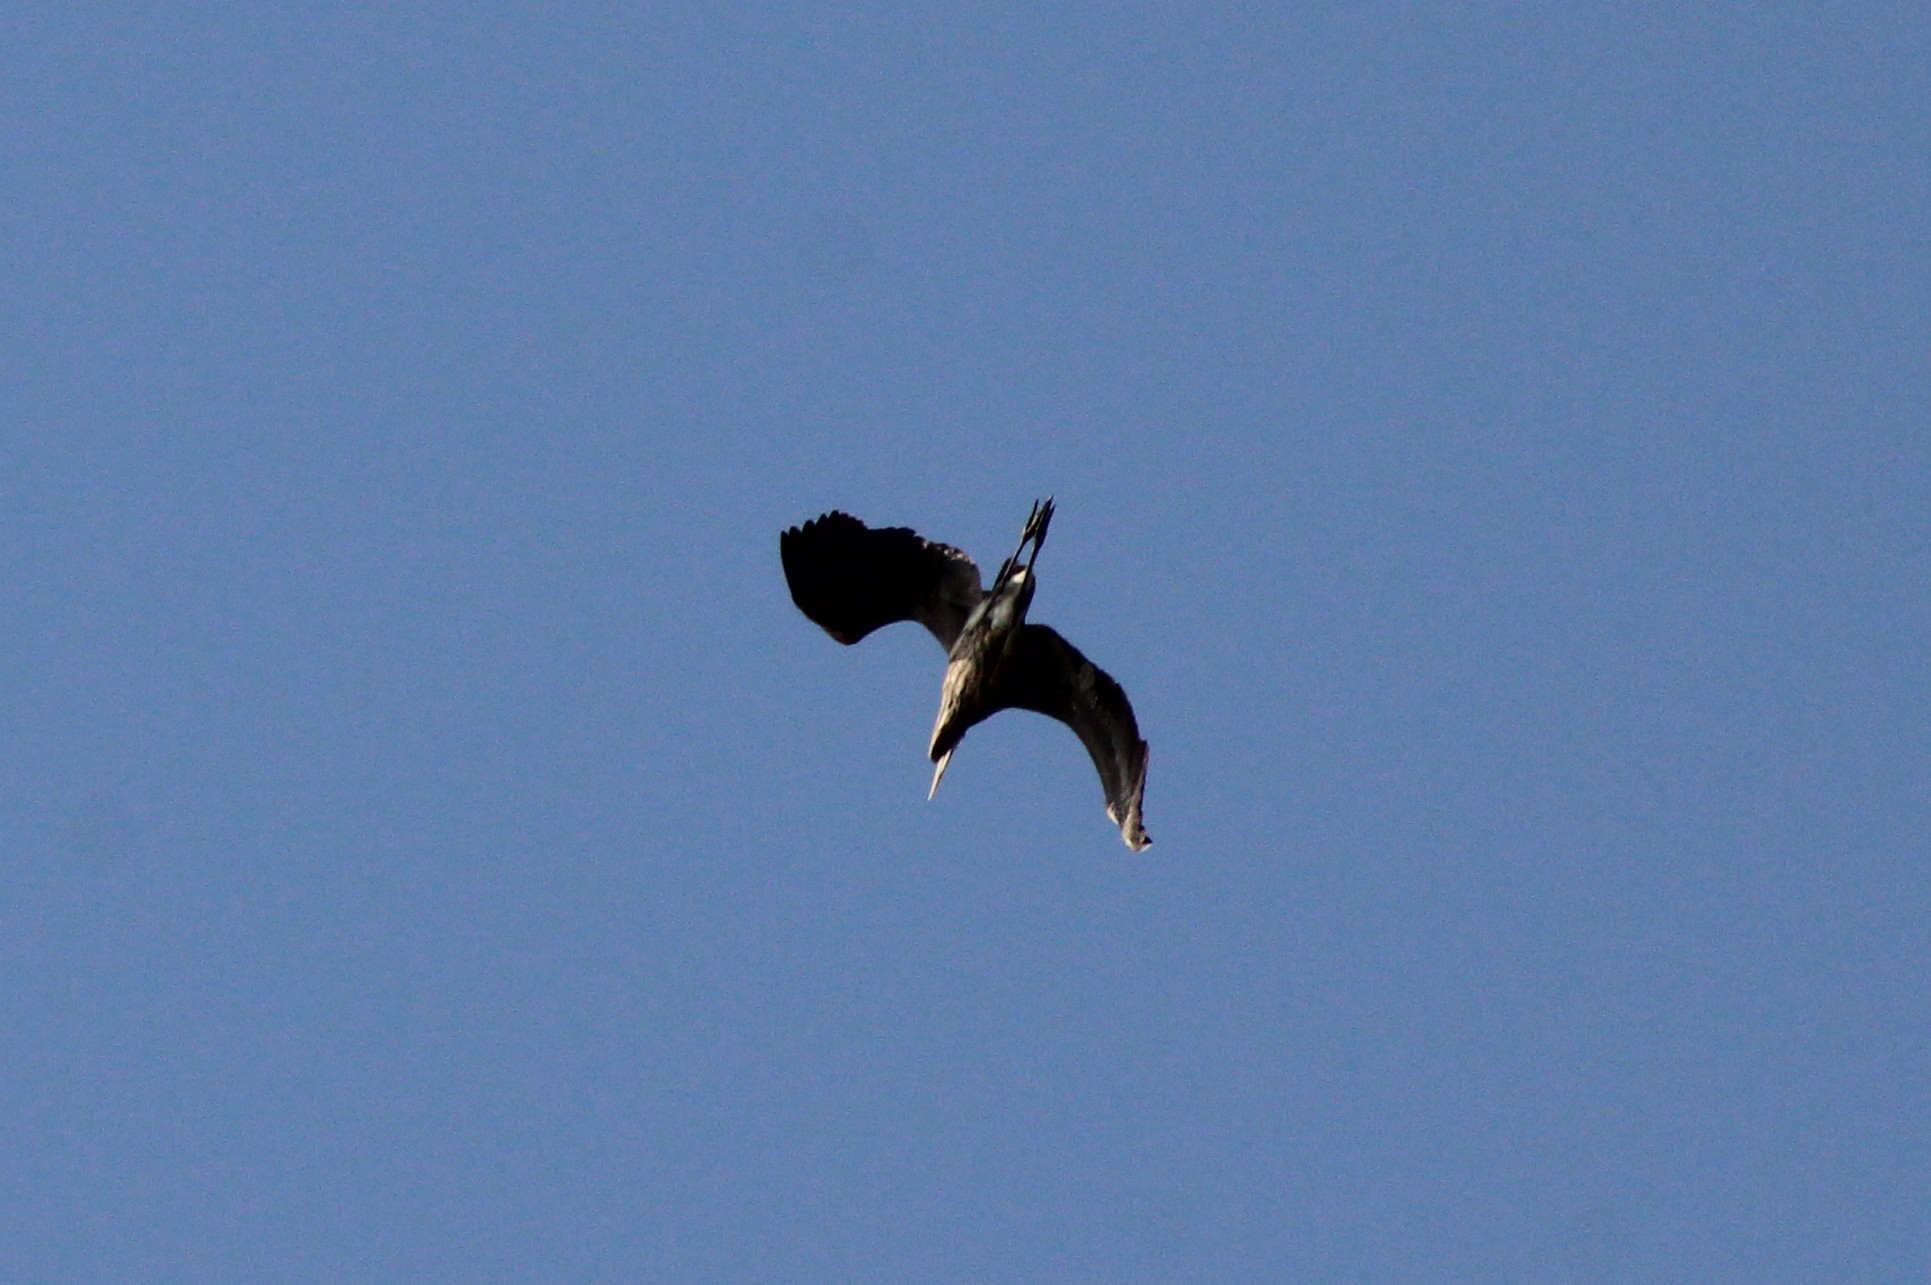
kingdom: Animalia
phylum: Chordata
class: Aves
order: Pelecaniformes
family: Ardeidae
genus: Ardea
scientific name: Ardea herodias
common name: Great blue heron
